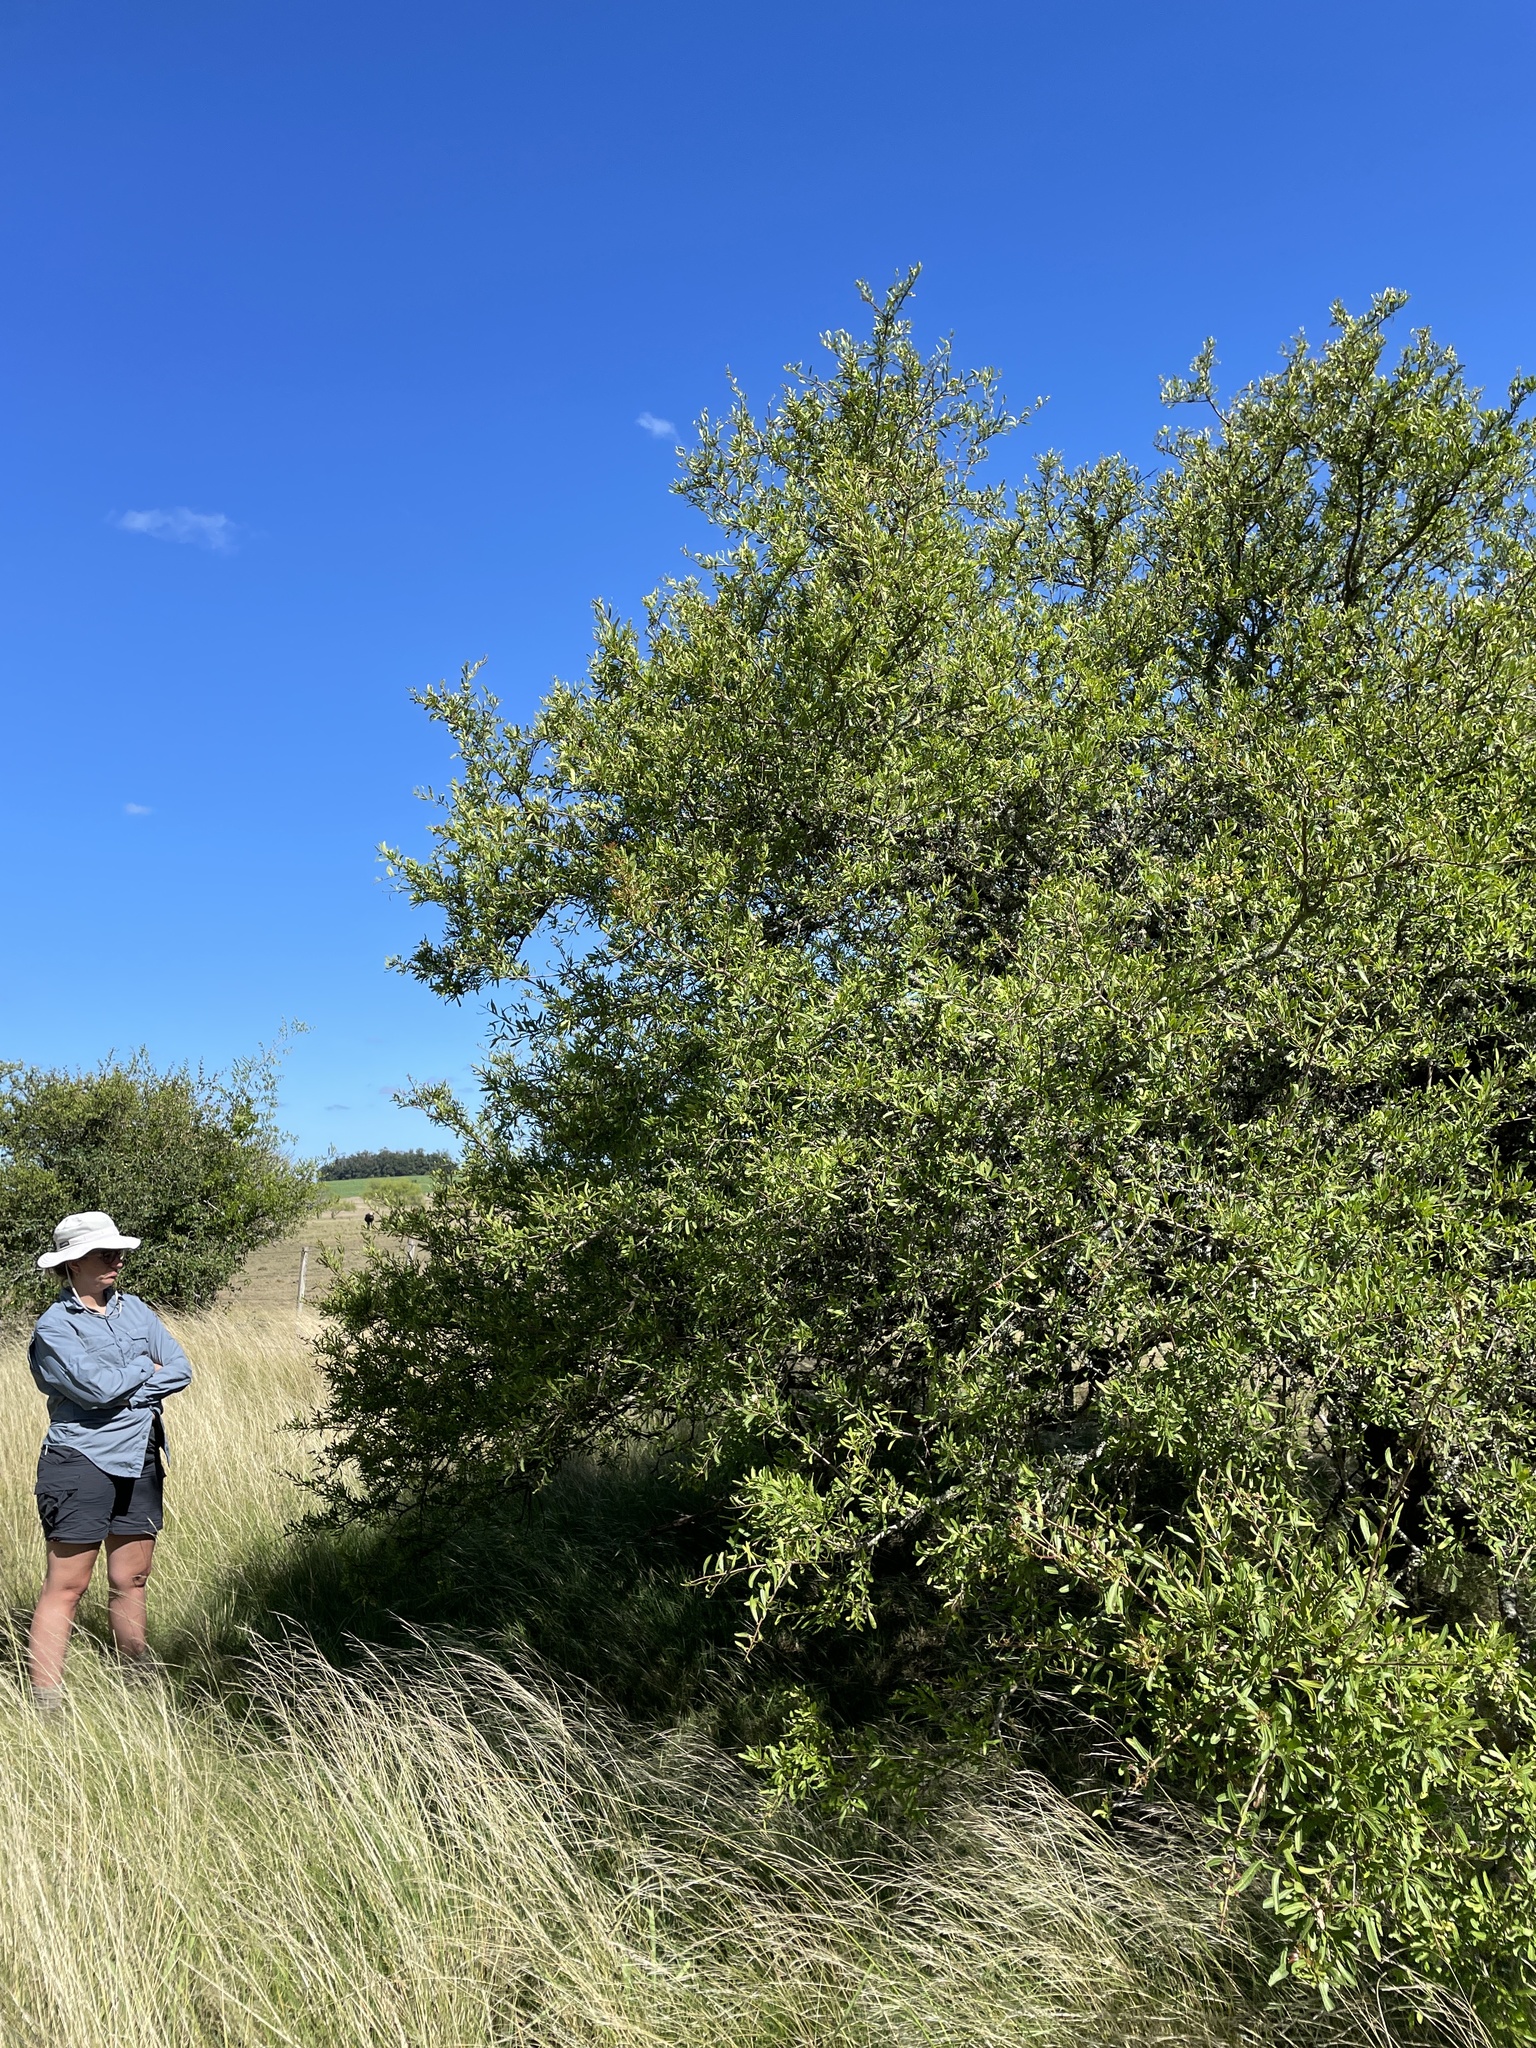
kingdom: Plantae
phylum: Tracheophyta
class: Magnoliopsida
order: Sapindales
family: Anacardiaceae
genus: Schinus
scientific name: Schinus longifolia
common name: Longleaf peppertree
